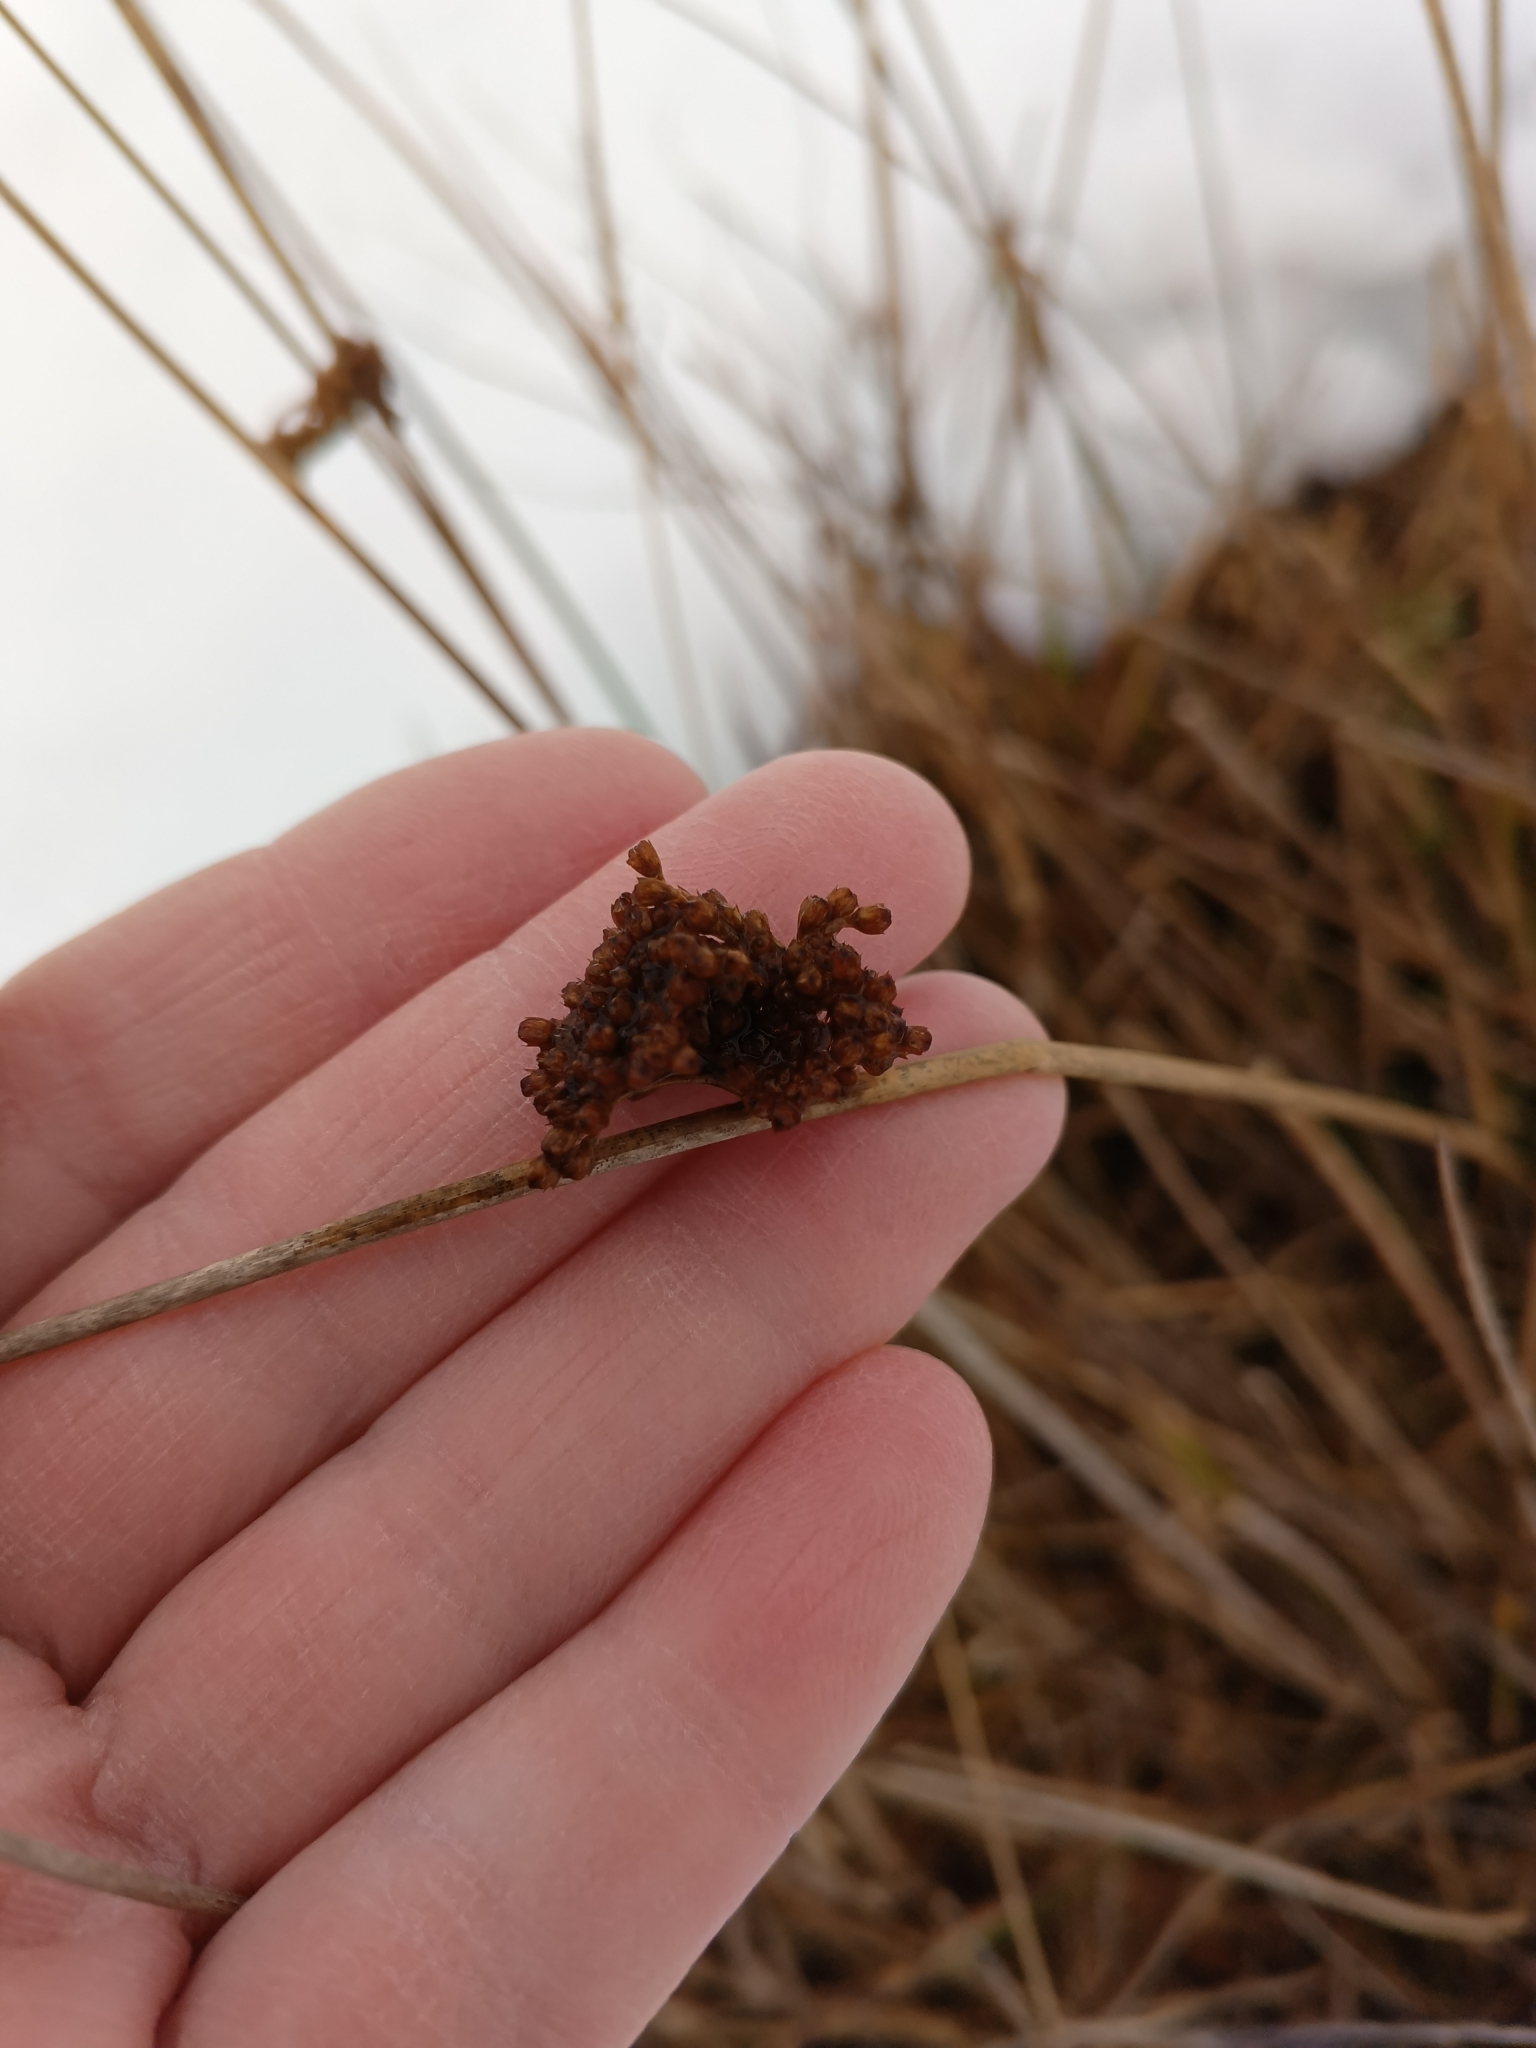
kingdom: Plantae
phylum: Tracheophyta
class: Liliopsida
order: Poales
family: Juncaceae
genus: Juncus
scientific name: Juncus effusus
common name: Soft rush
